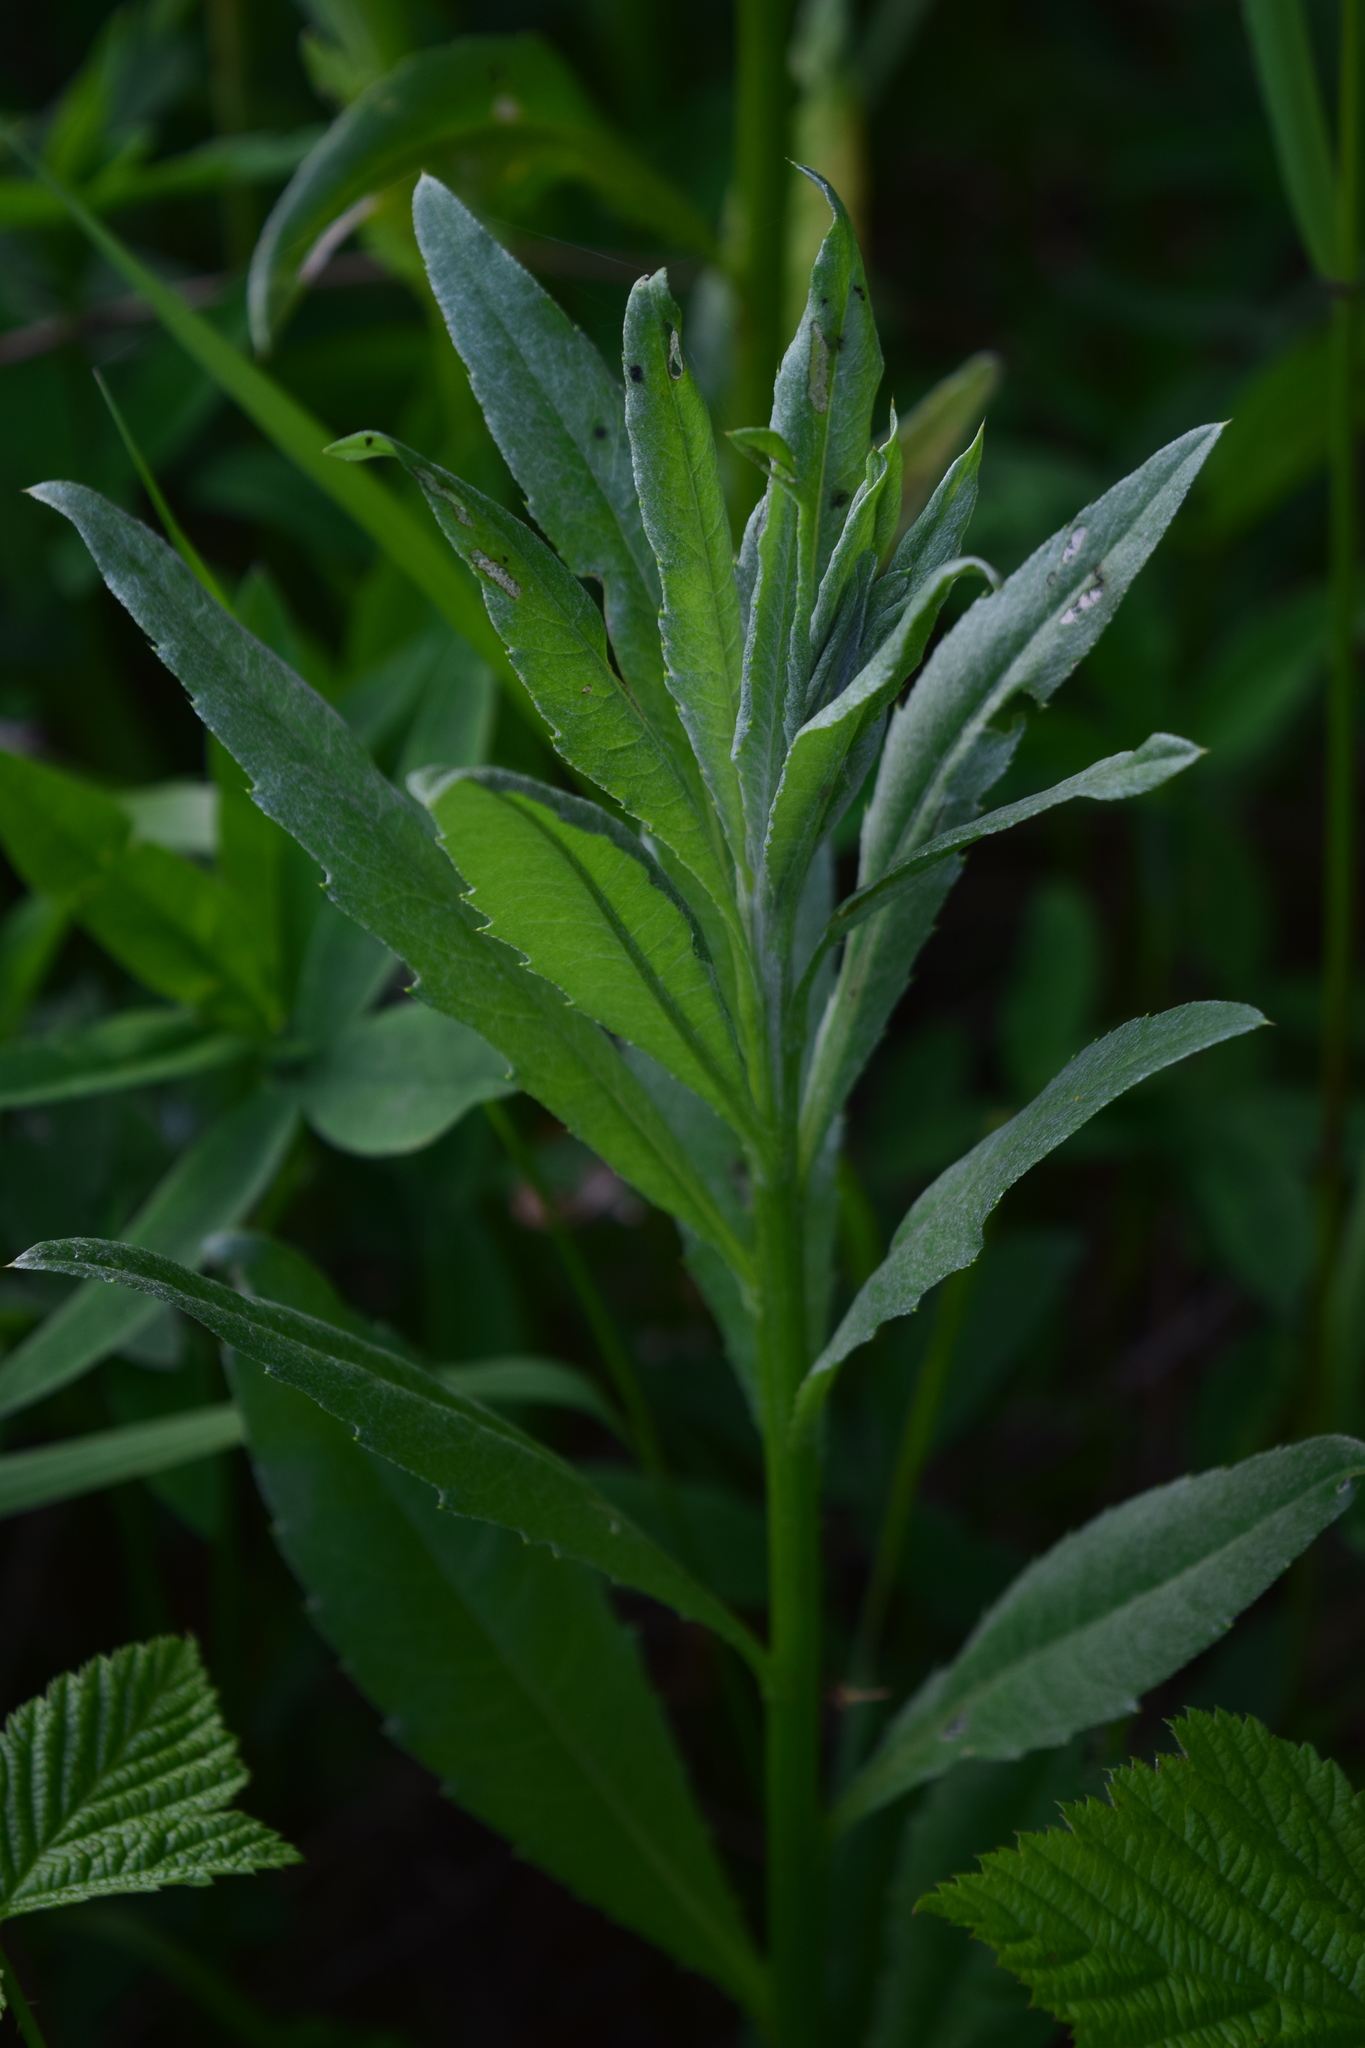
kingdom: Plantae
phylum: Tracheophyta
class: Magnoliopsida
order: Asterales
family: Asteraceae
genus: Cirsium
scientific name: Cirsium arvense
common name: Creeping thistle
